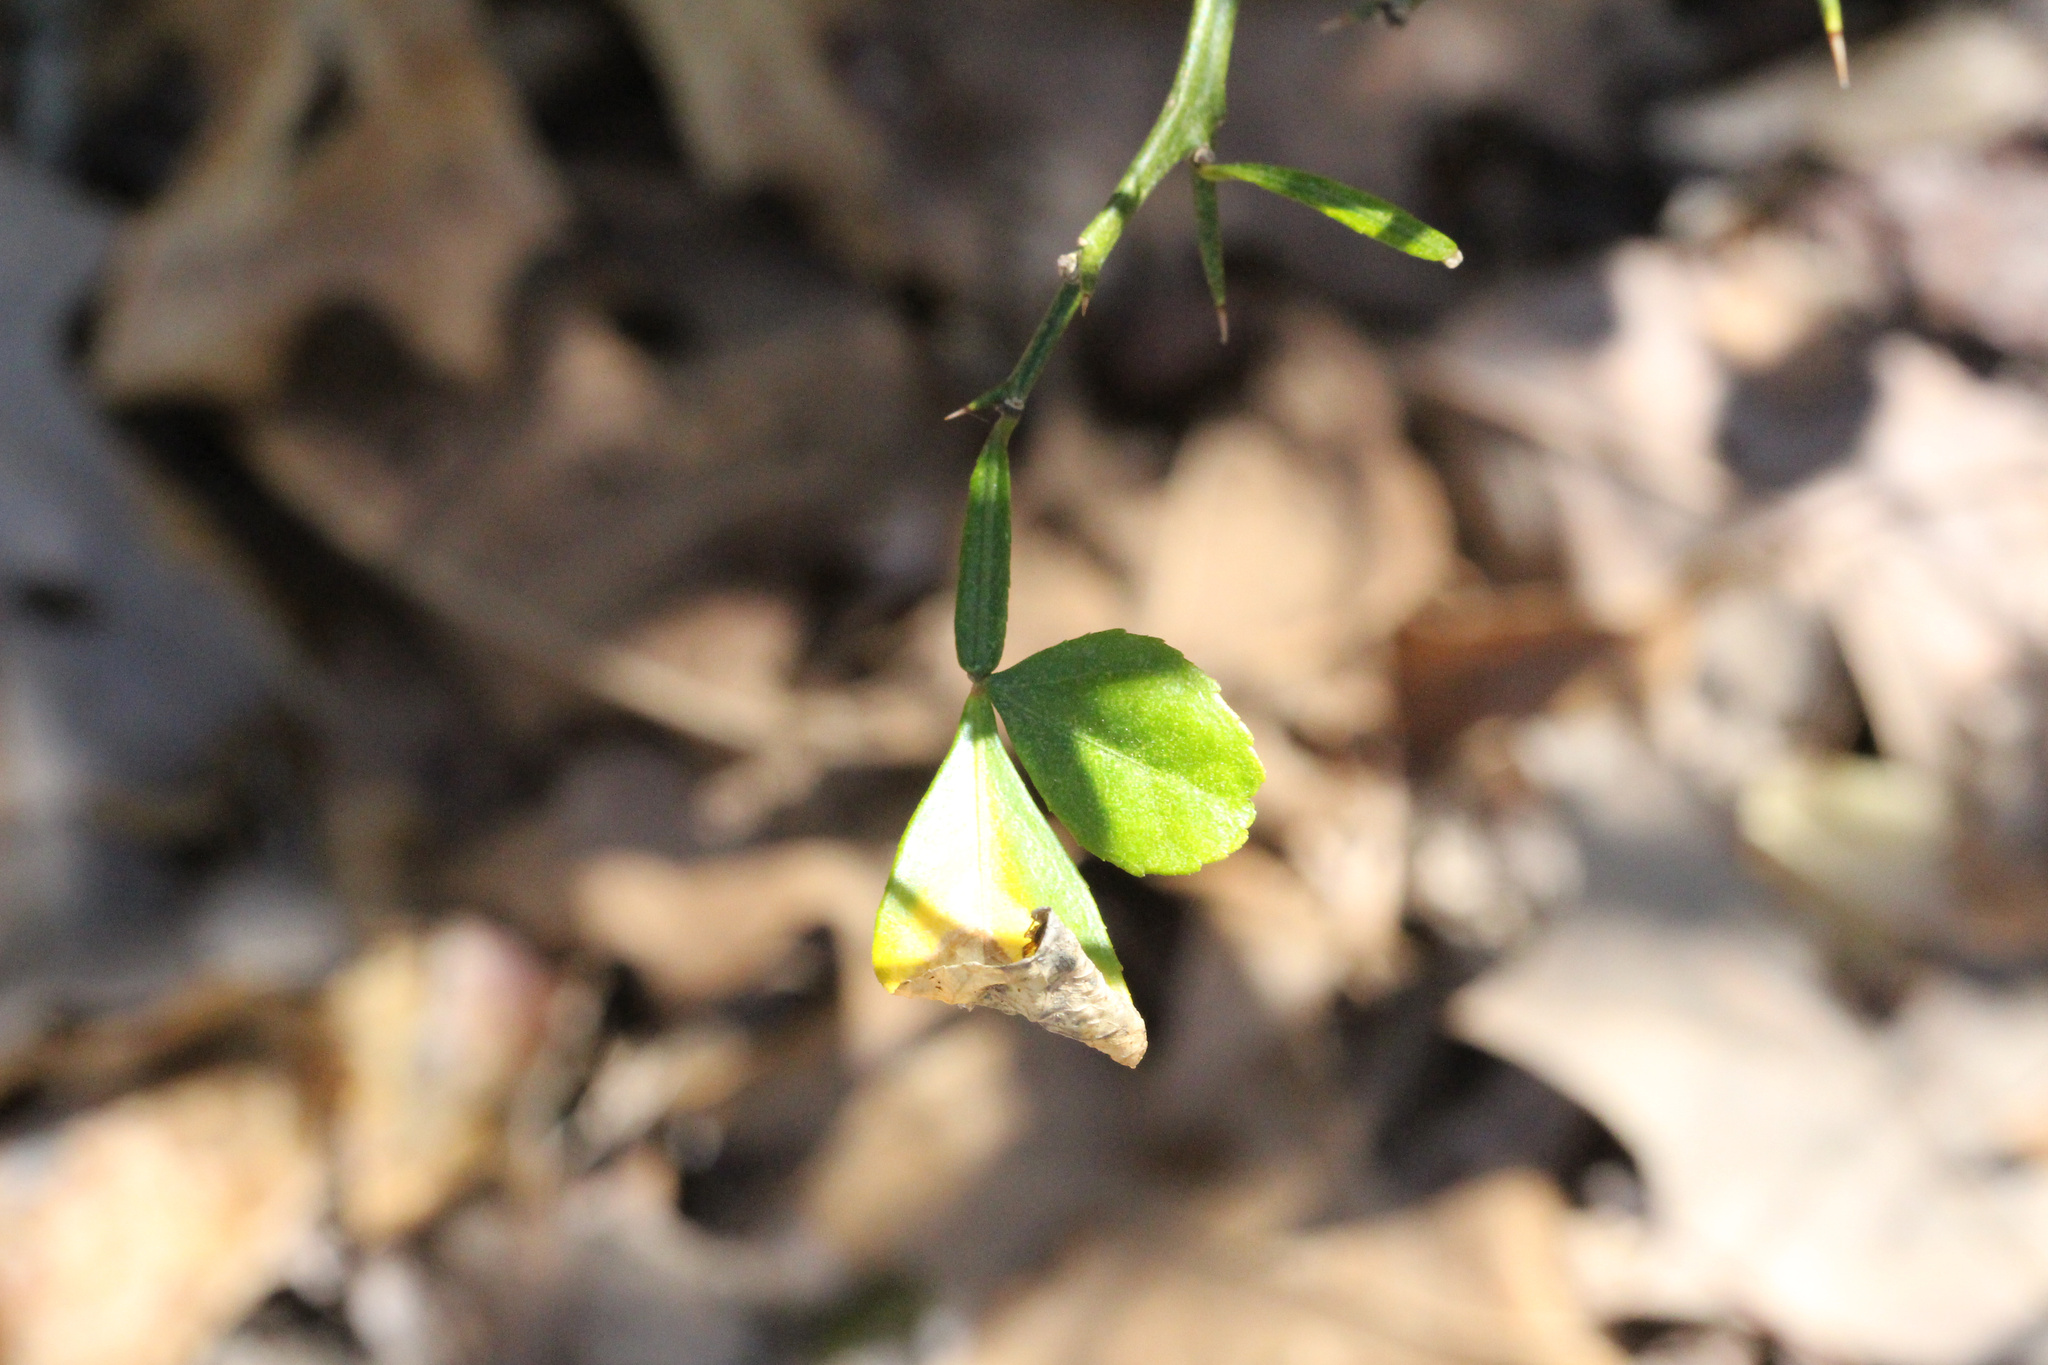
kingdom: Plantae
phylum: Tracheophyta
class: Magnoliopsida
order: Sapindales
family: Rutaceae
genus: Citrus
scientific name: Citrus trifoliata
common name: Japanese bitter-orange
